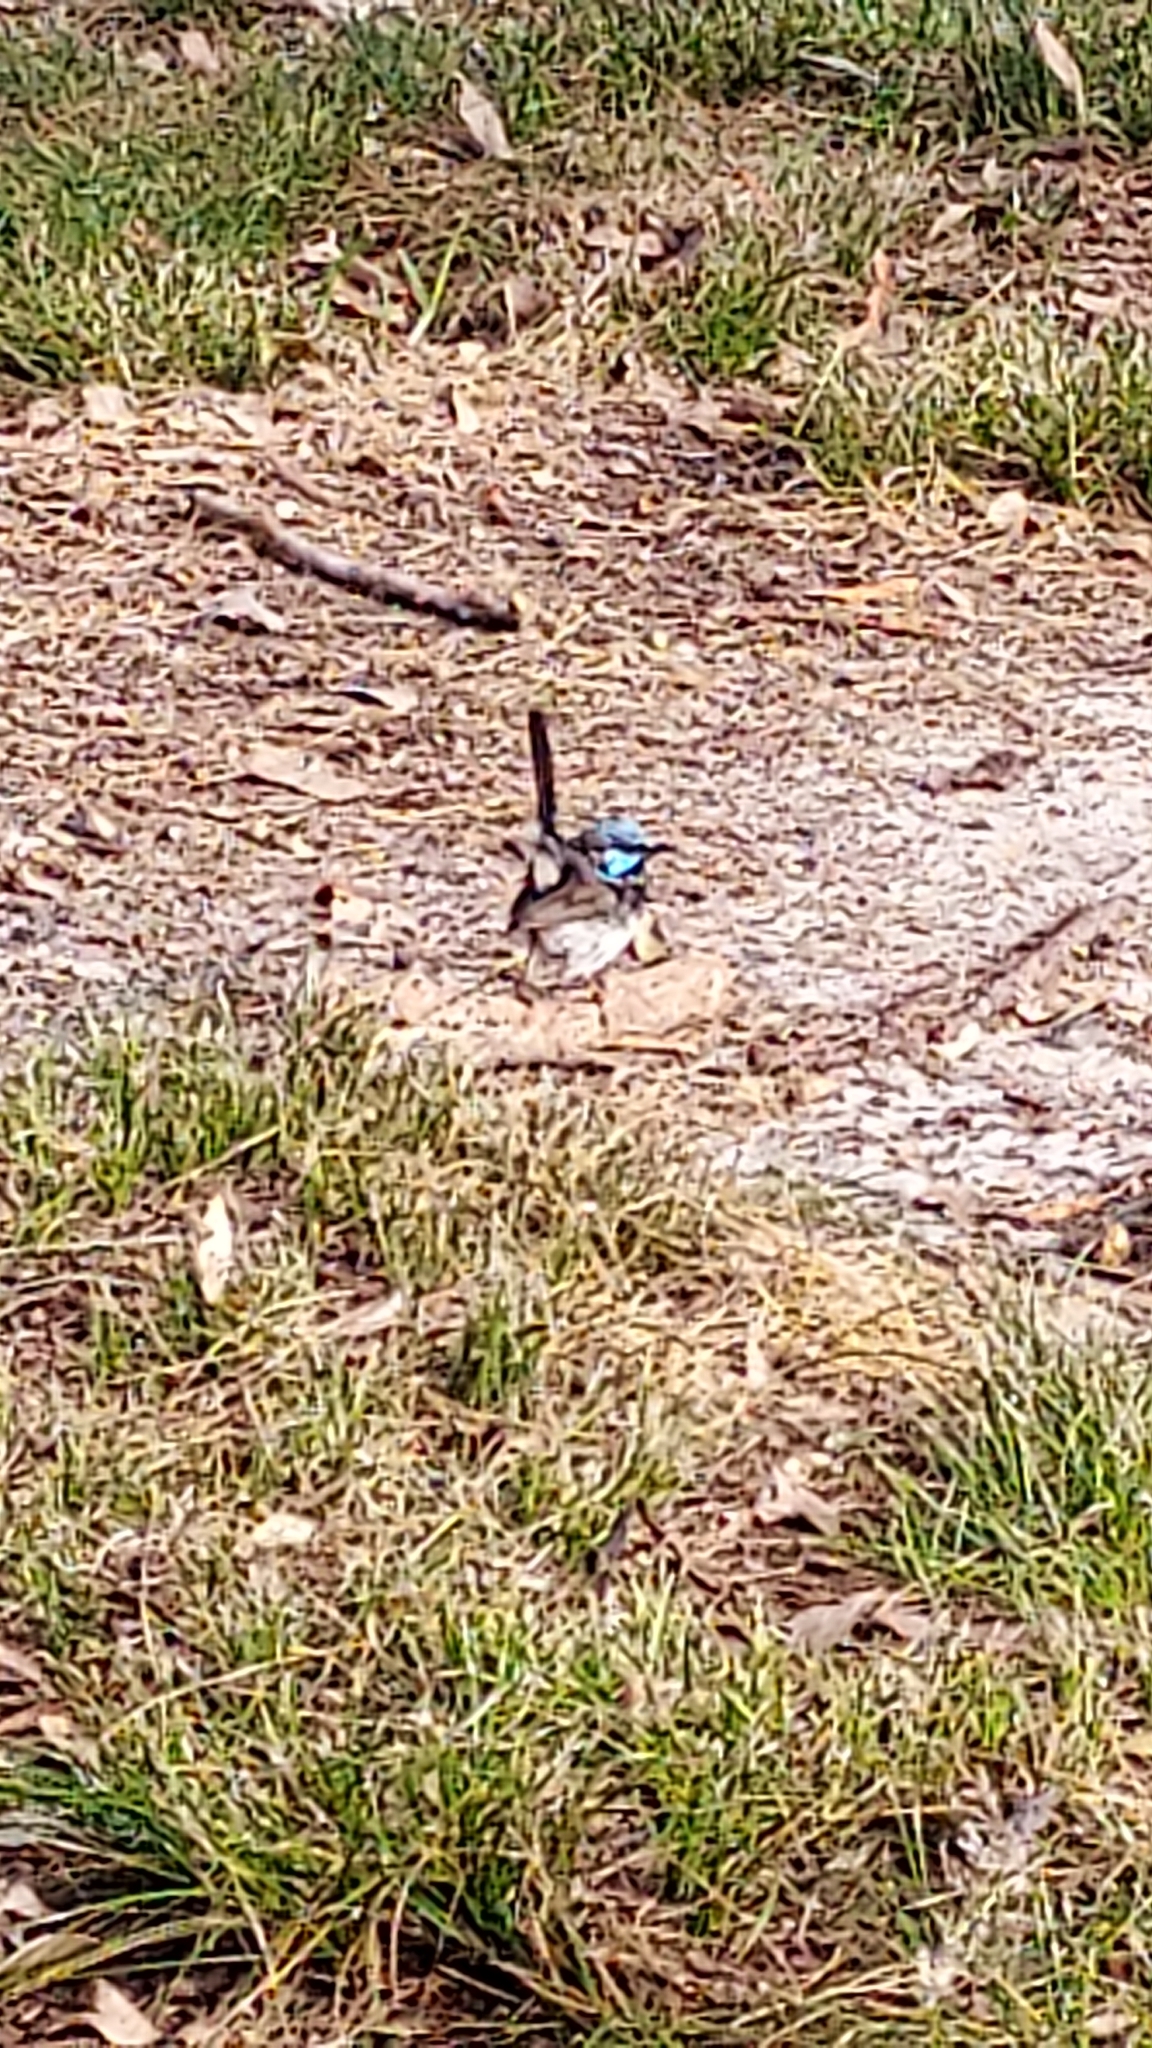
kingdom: Animalia
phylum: Chordata
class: Aves
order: Passeriformes
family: Maluridae
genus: Malurus
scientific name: Malurus cyaneus
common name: Superb fairywren
